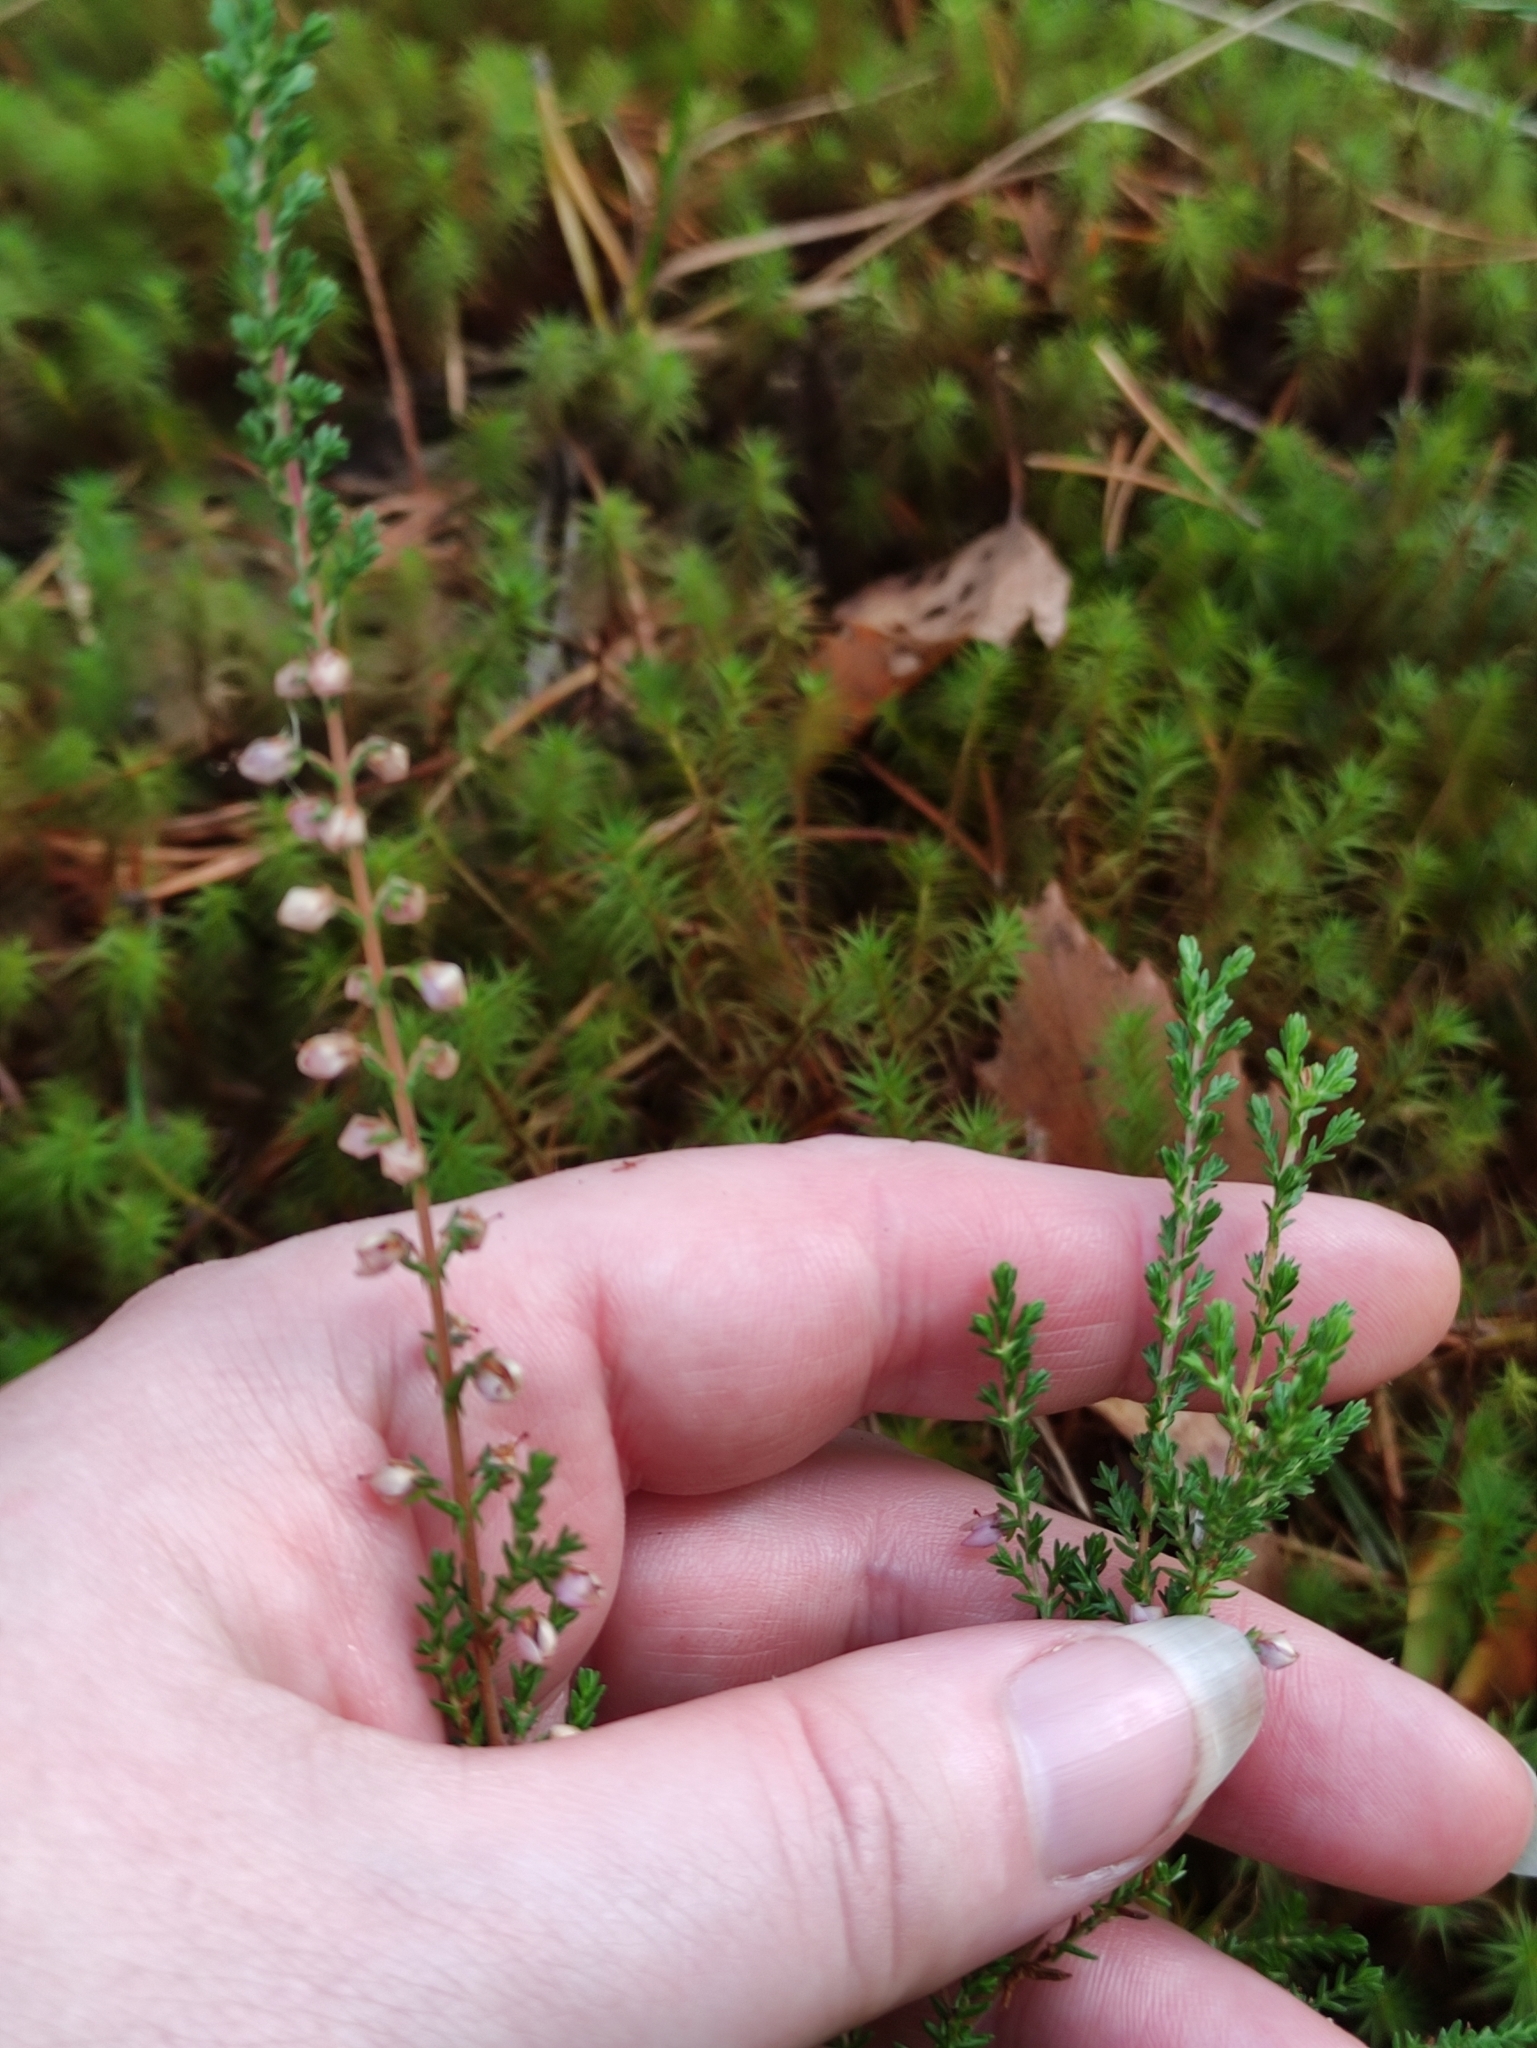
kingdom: Plantae
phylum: Tracheophyta
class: Magnoliopsida
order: Ericales
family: Ericaceae
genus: Calluna
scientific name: Calluna vulgaris
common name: Heather
